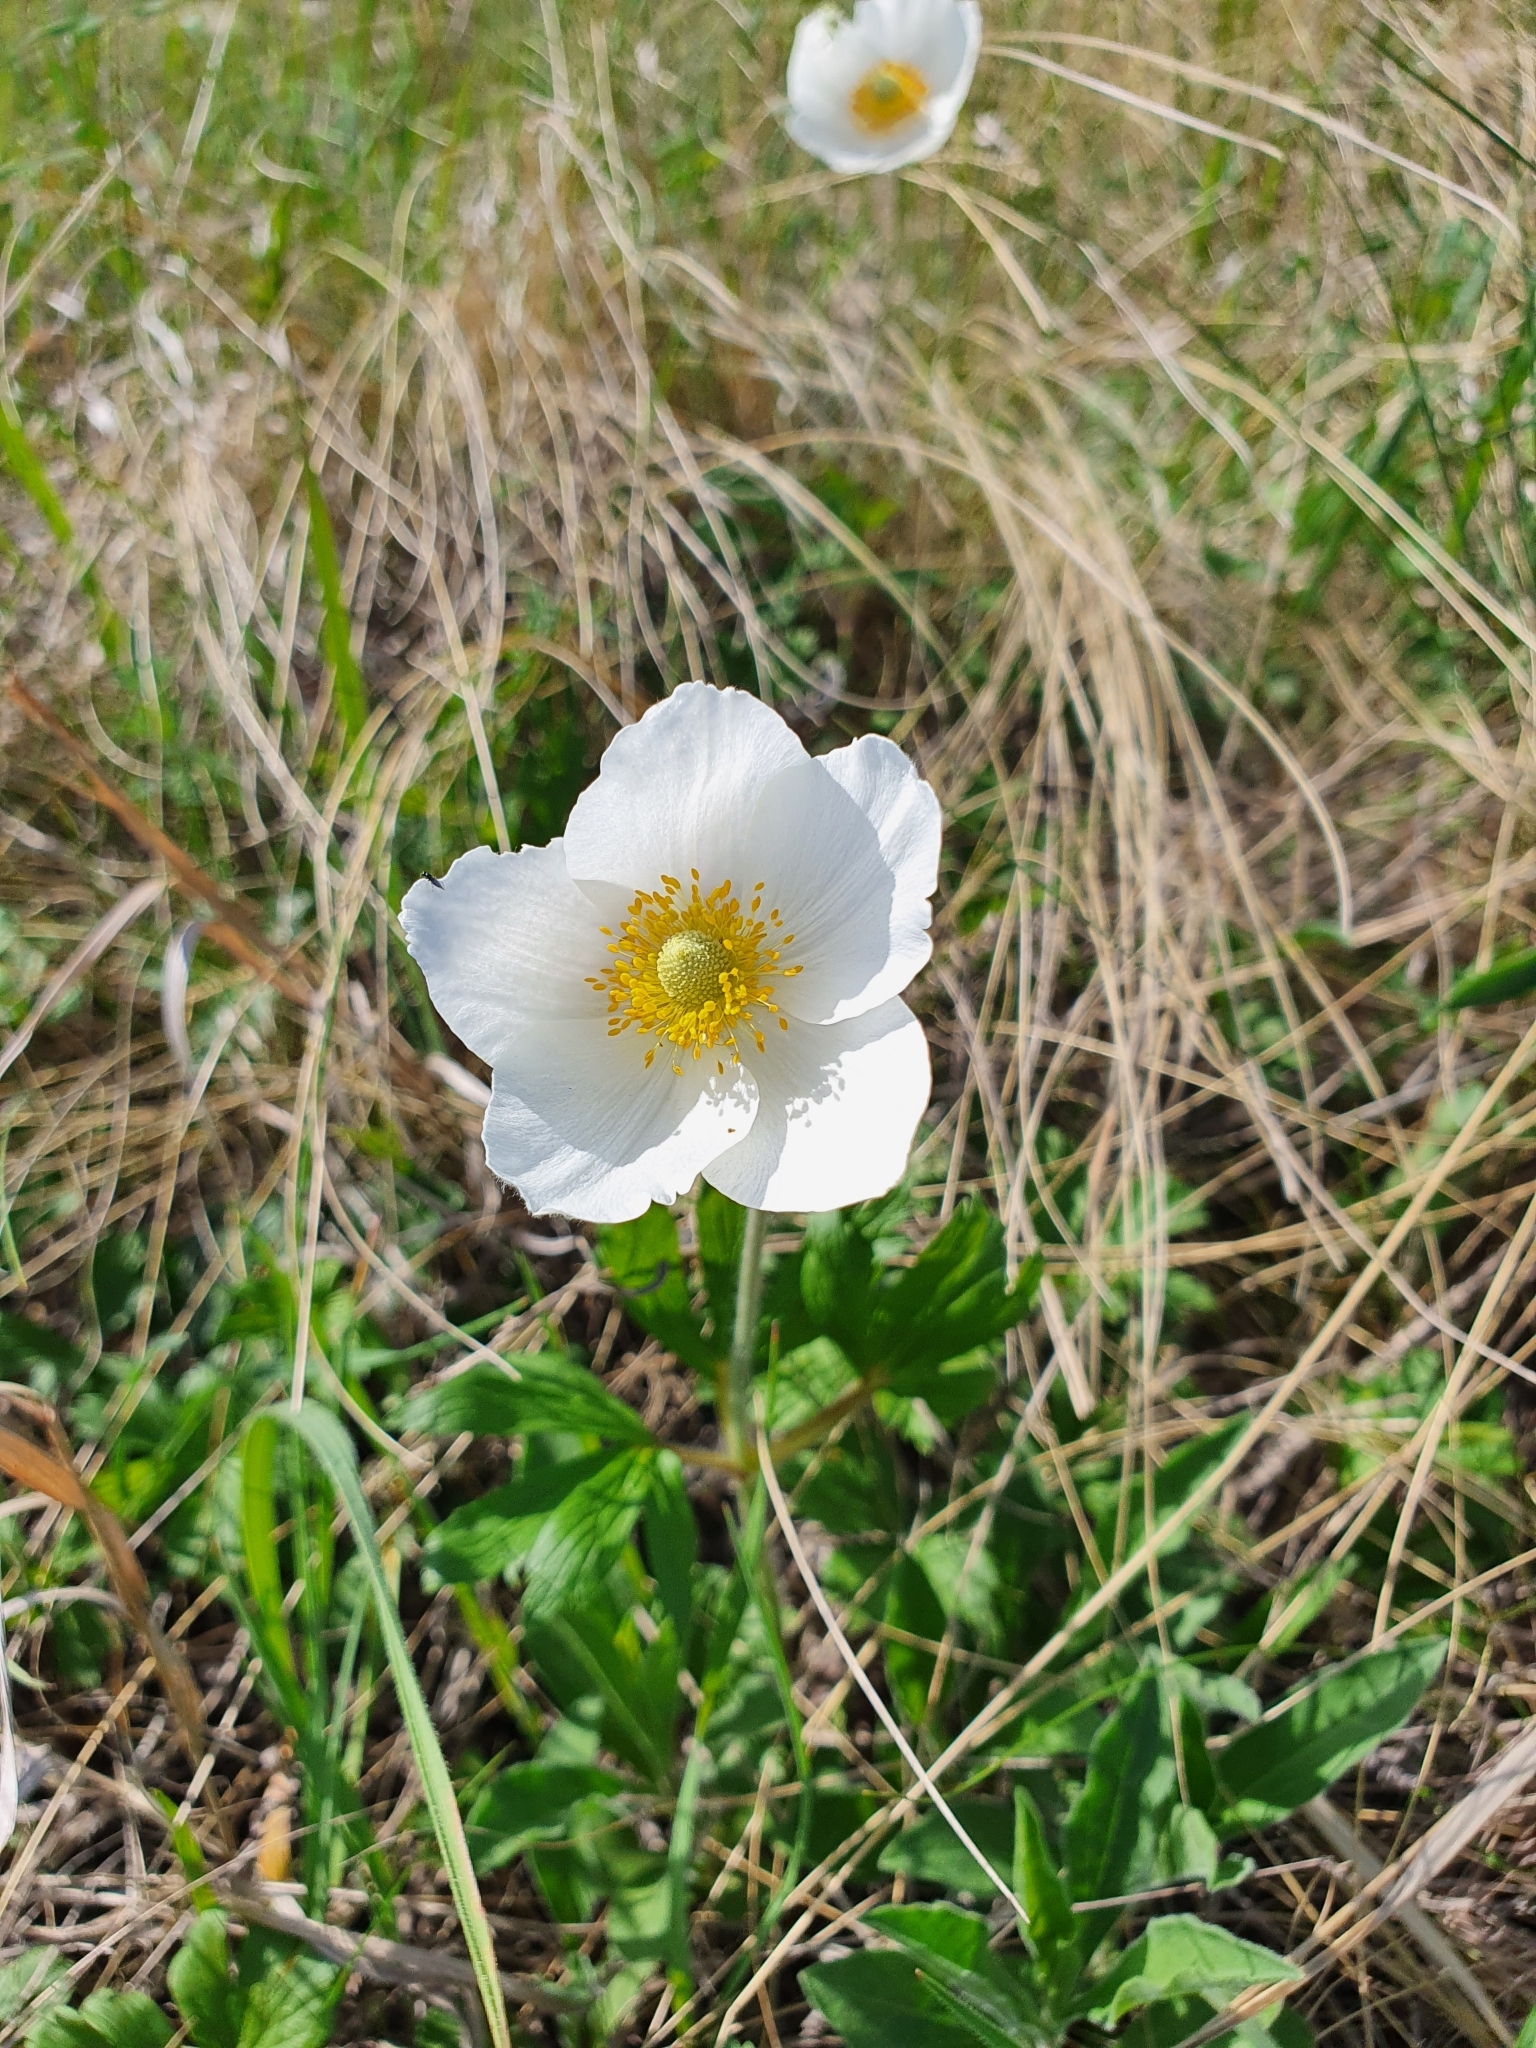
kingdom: Plantae
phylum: Tracheophyta
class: Magnoliopsida
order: Ranunculales
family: Ranunculaceae
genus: Anemone
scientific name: Anemone sylvestris
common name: Snowdrop anemone
